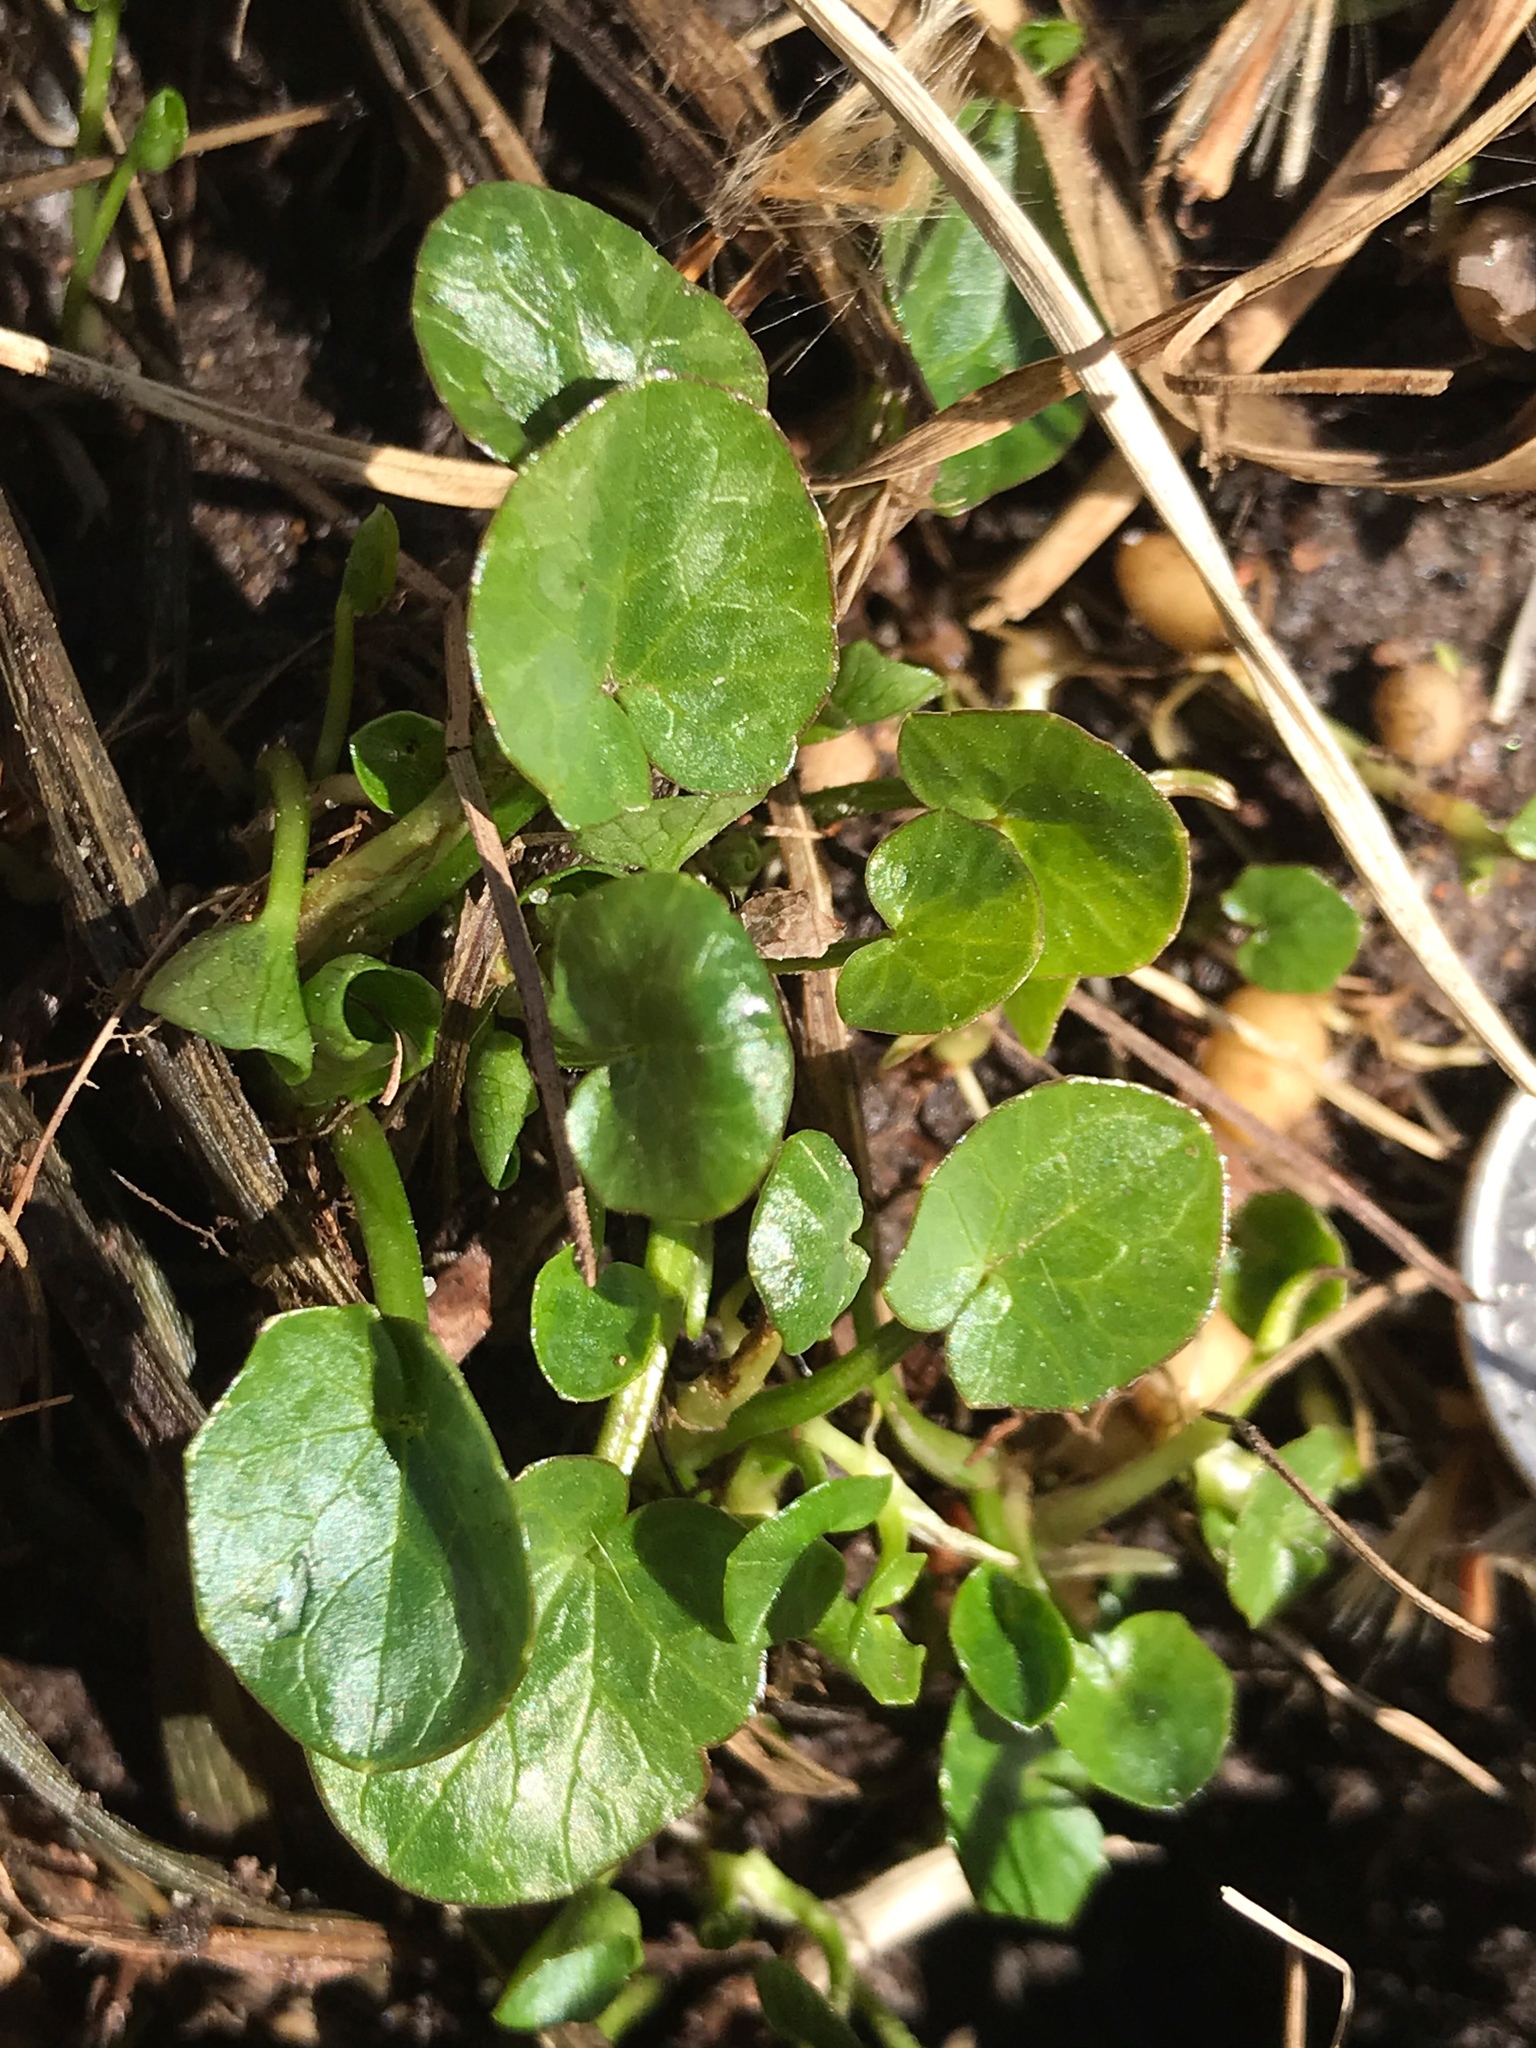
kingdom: Plantae
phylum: Tracheophyta
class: Magnoliopsida
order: Ranunculales
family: Ranunculaceae
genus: Ficaria
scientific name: Ficaria verna
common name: Lesser celandine
